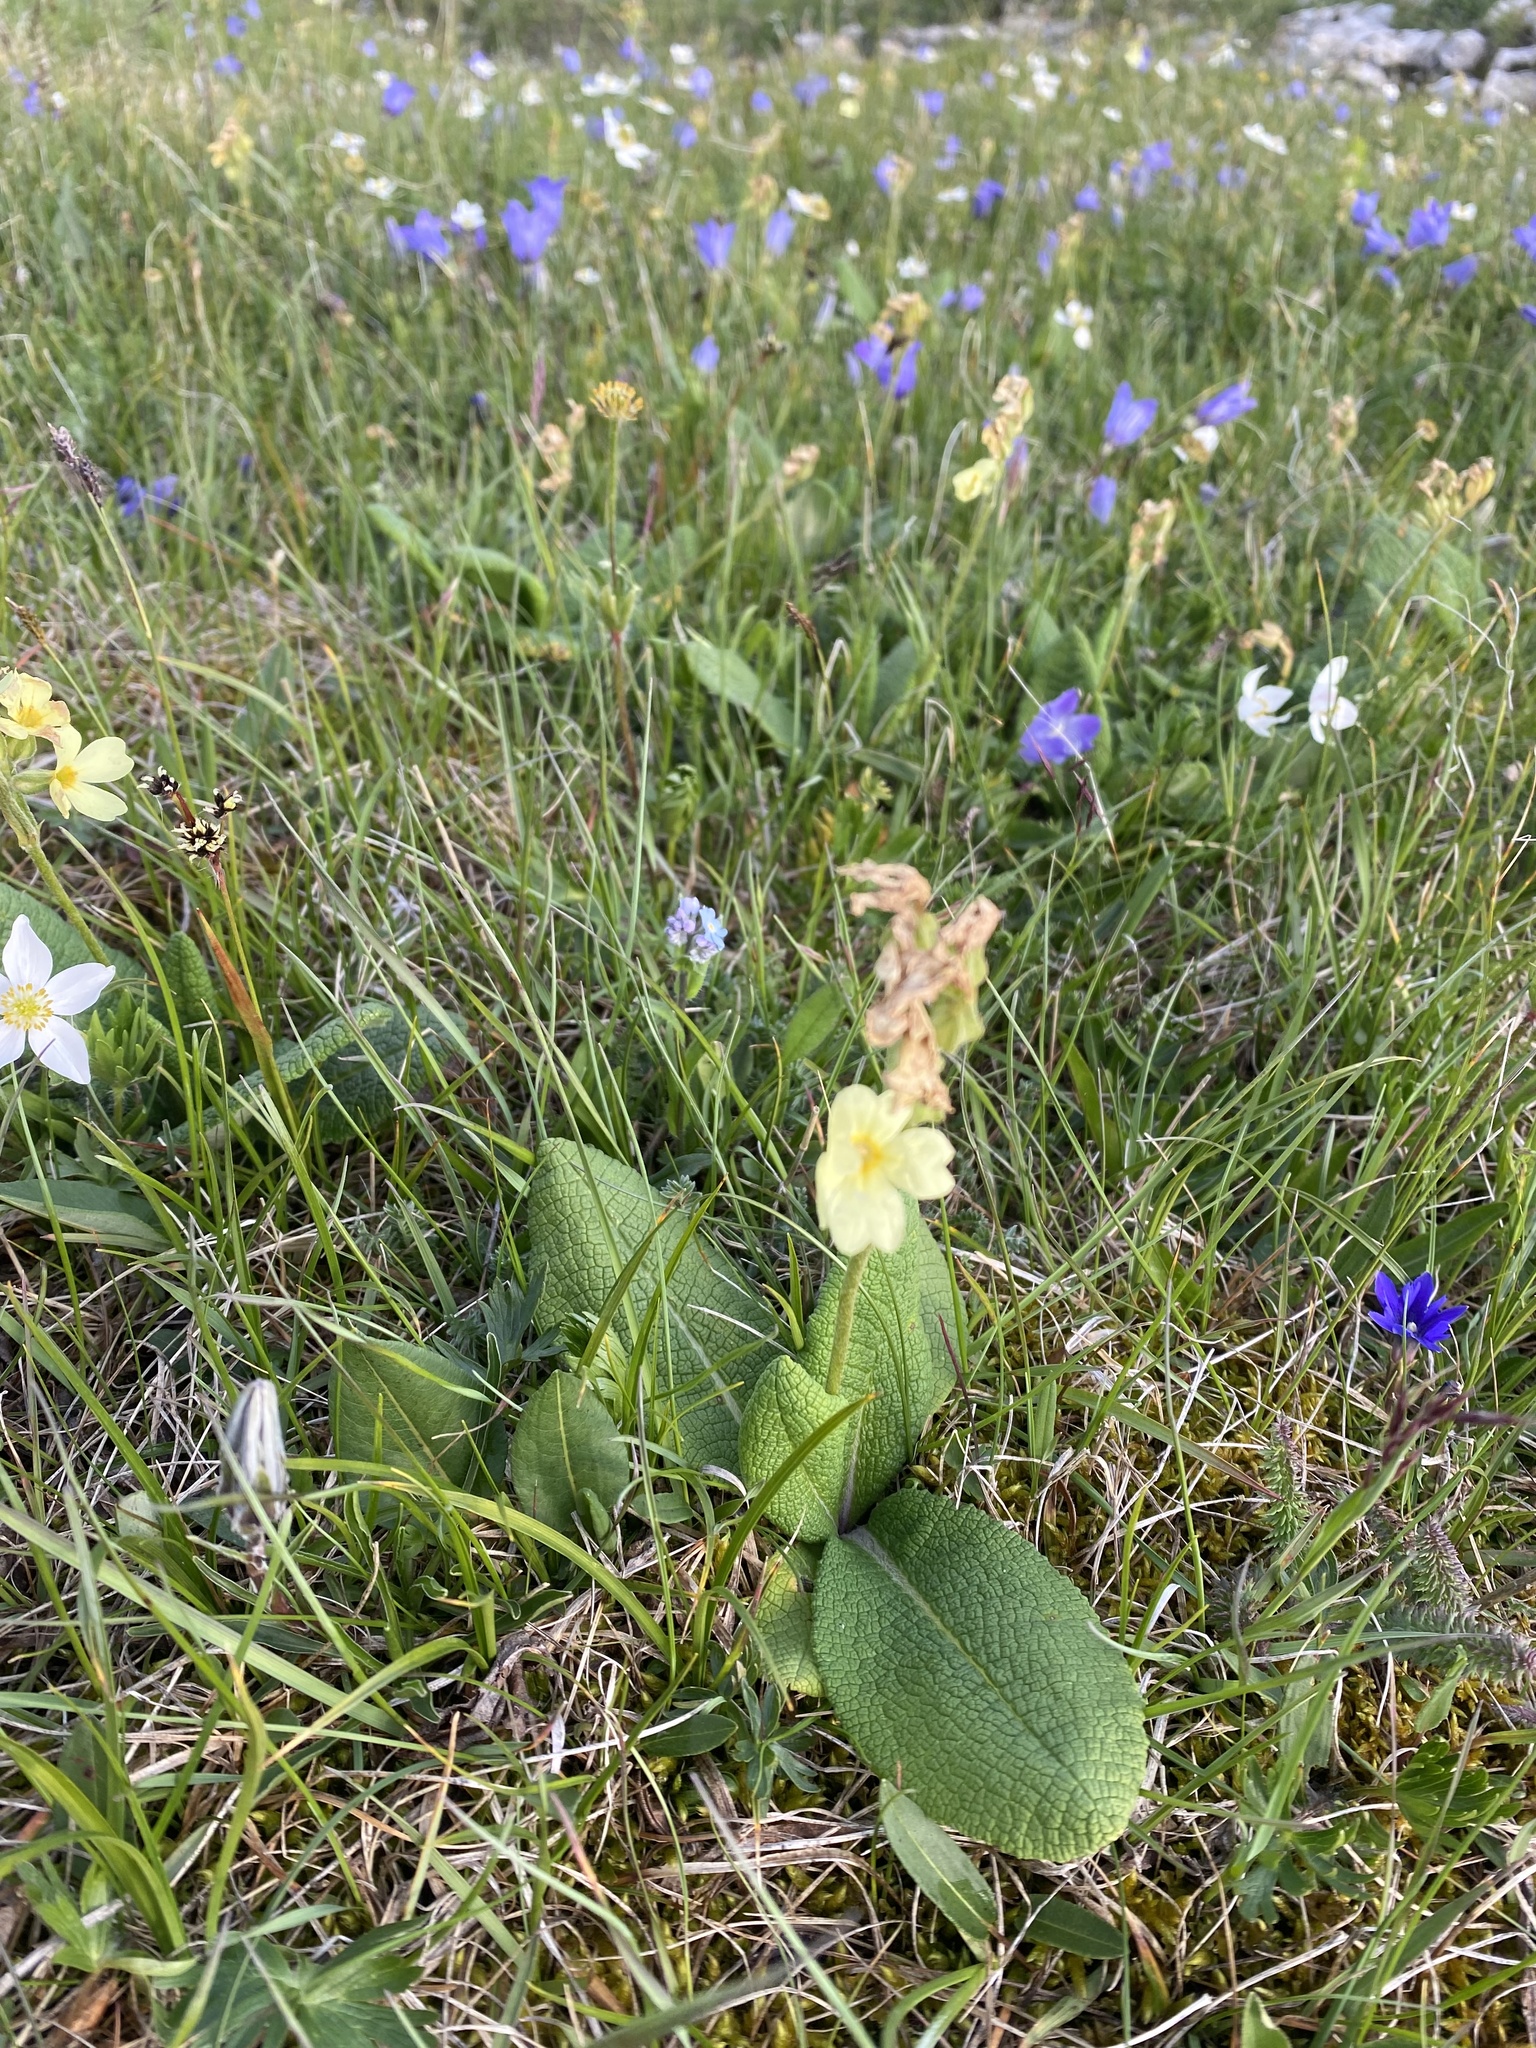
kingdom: Plantae
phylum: Tracheophyta
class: Magnoliopsida
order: Ericales
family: Primulaceae
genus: Primula
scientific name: Primula veris
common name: Cowslip
